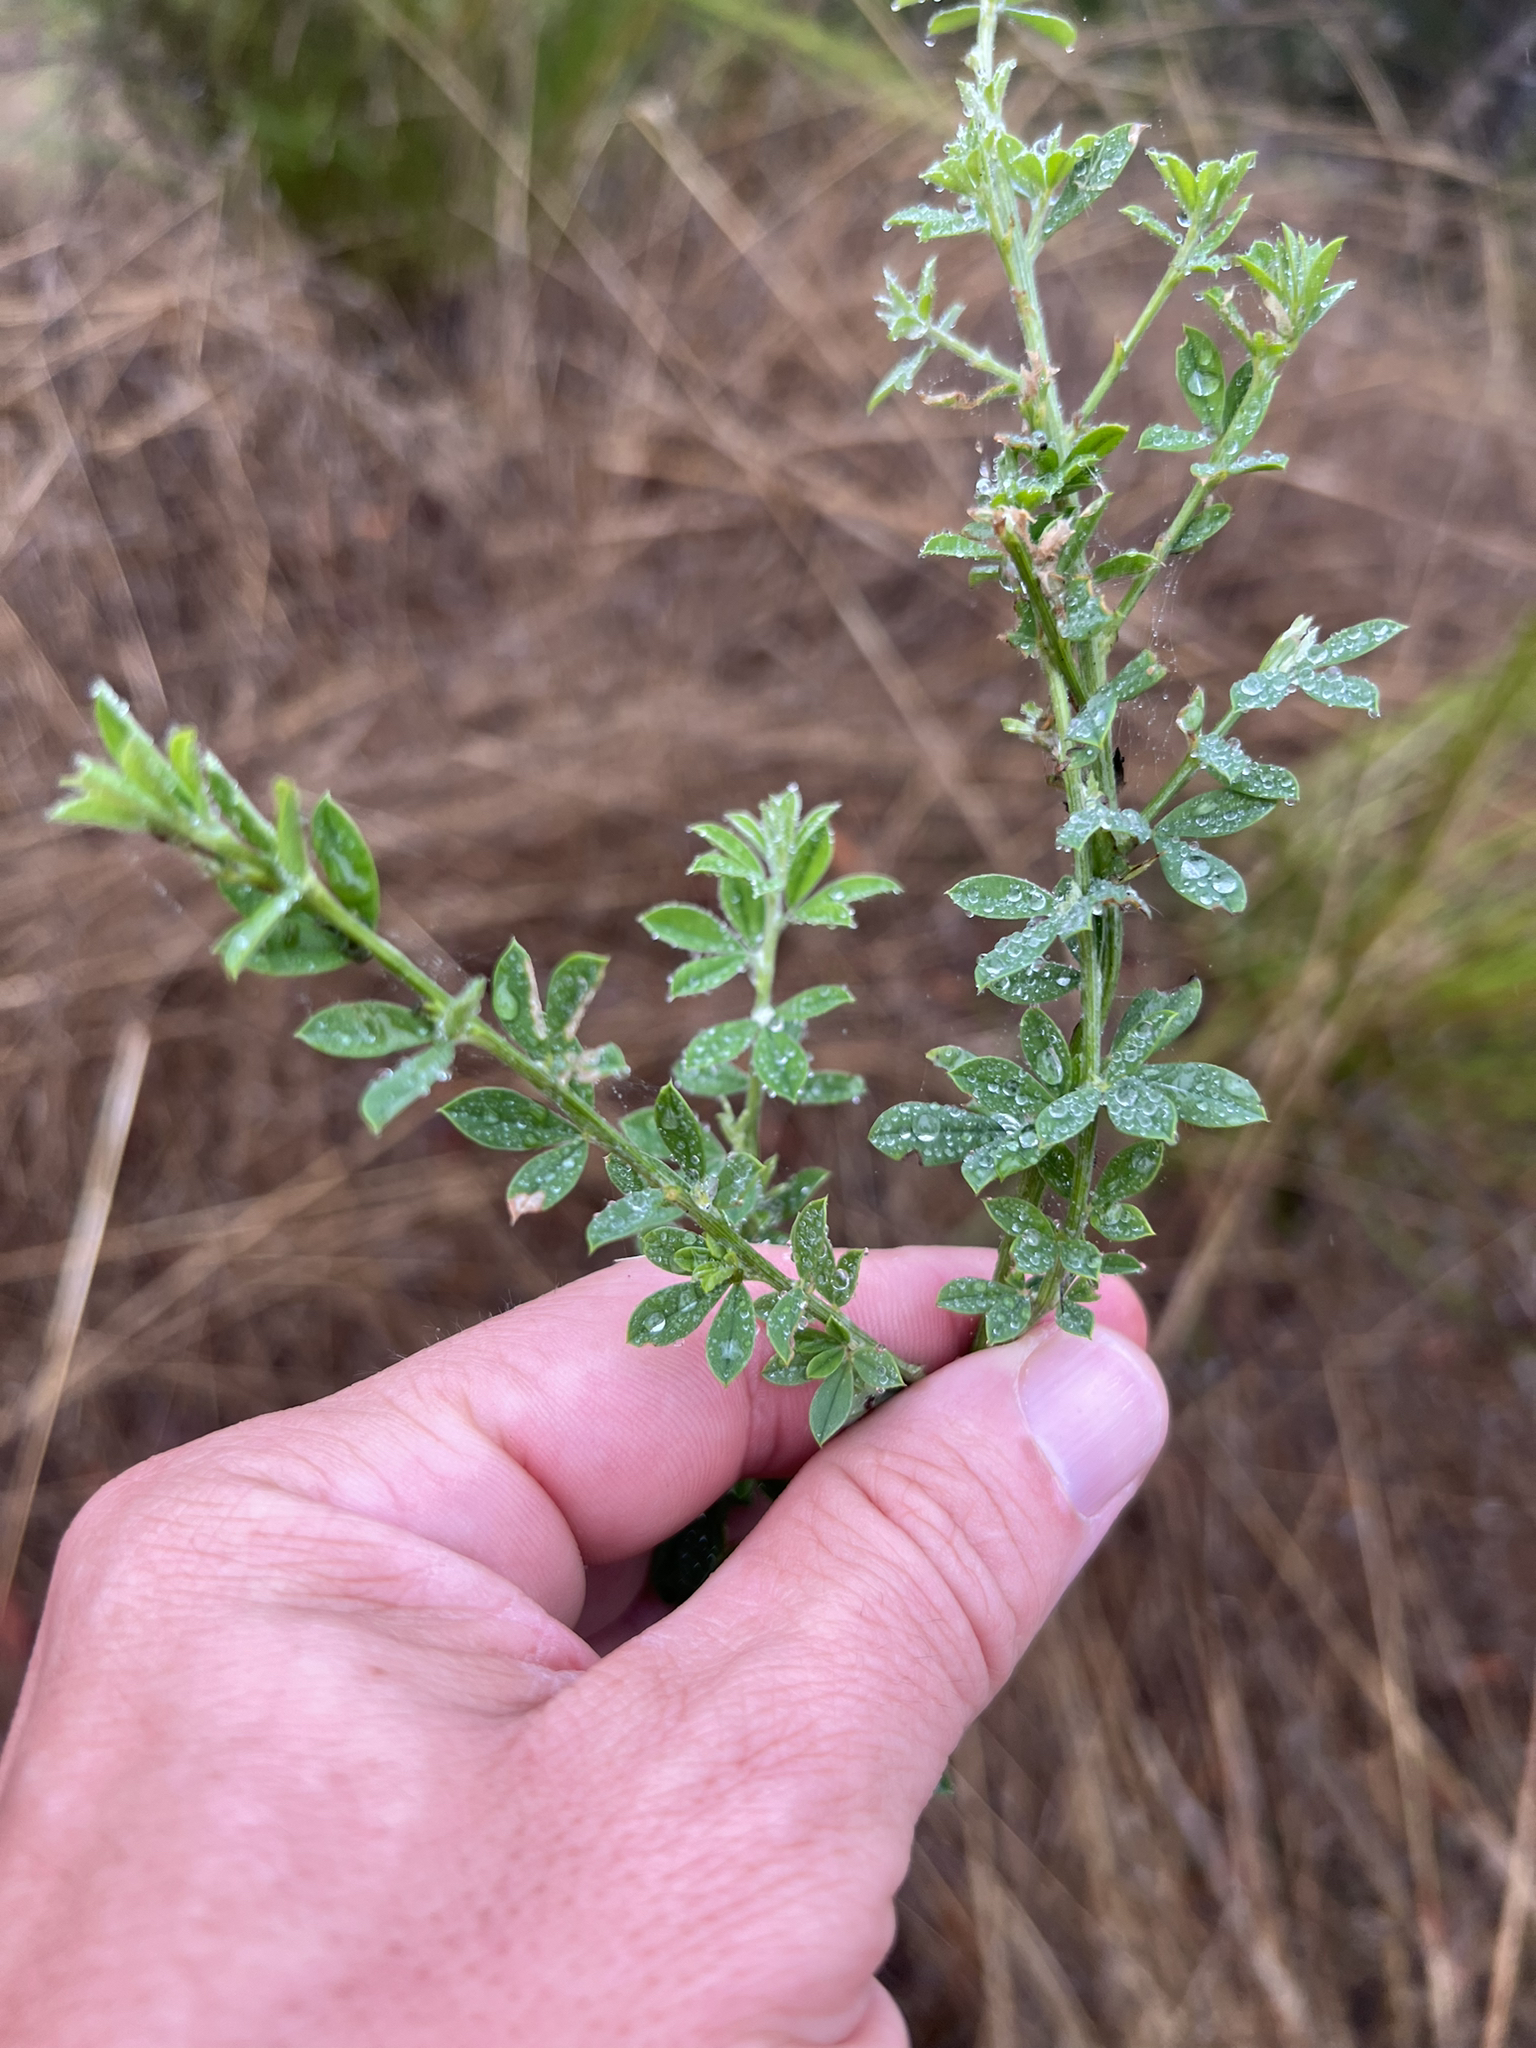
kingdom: Plantae
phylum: Tracheophyta
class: Magnoliopsida
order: Fabales
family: Fabaceae
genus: Genista
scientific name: Genista monspessulana
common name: Montpellier broom
